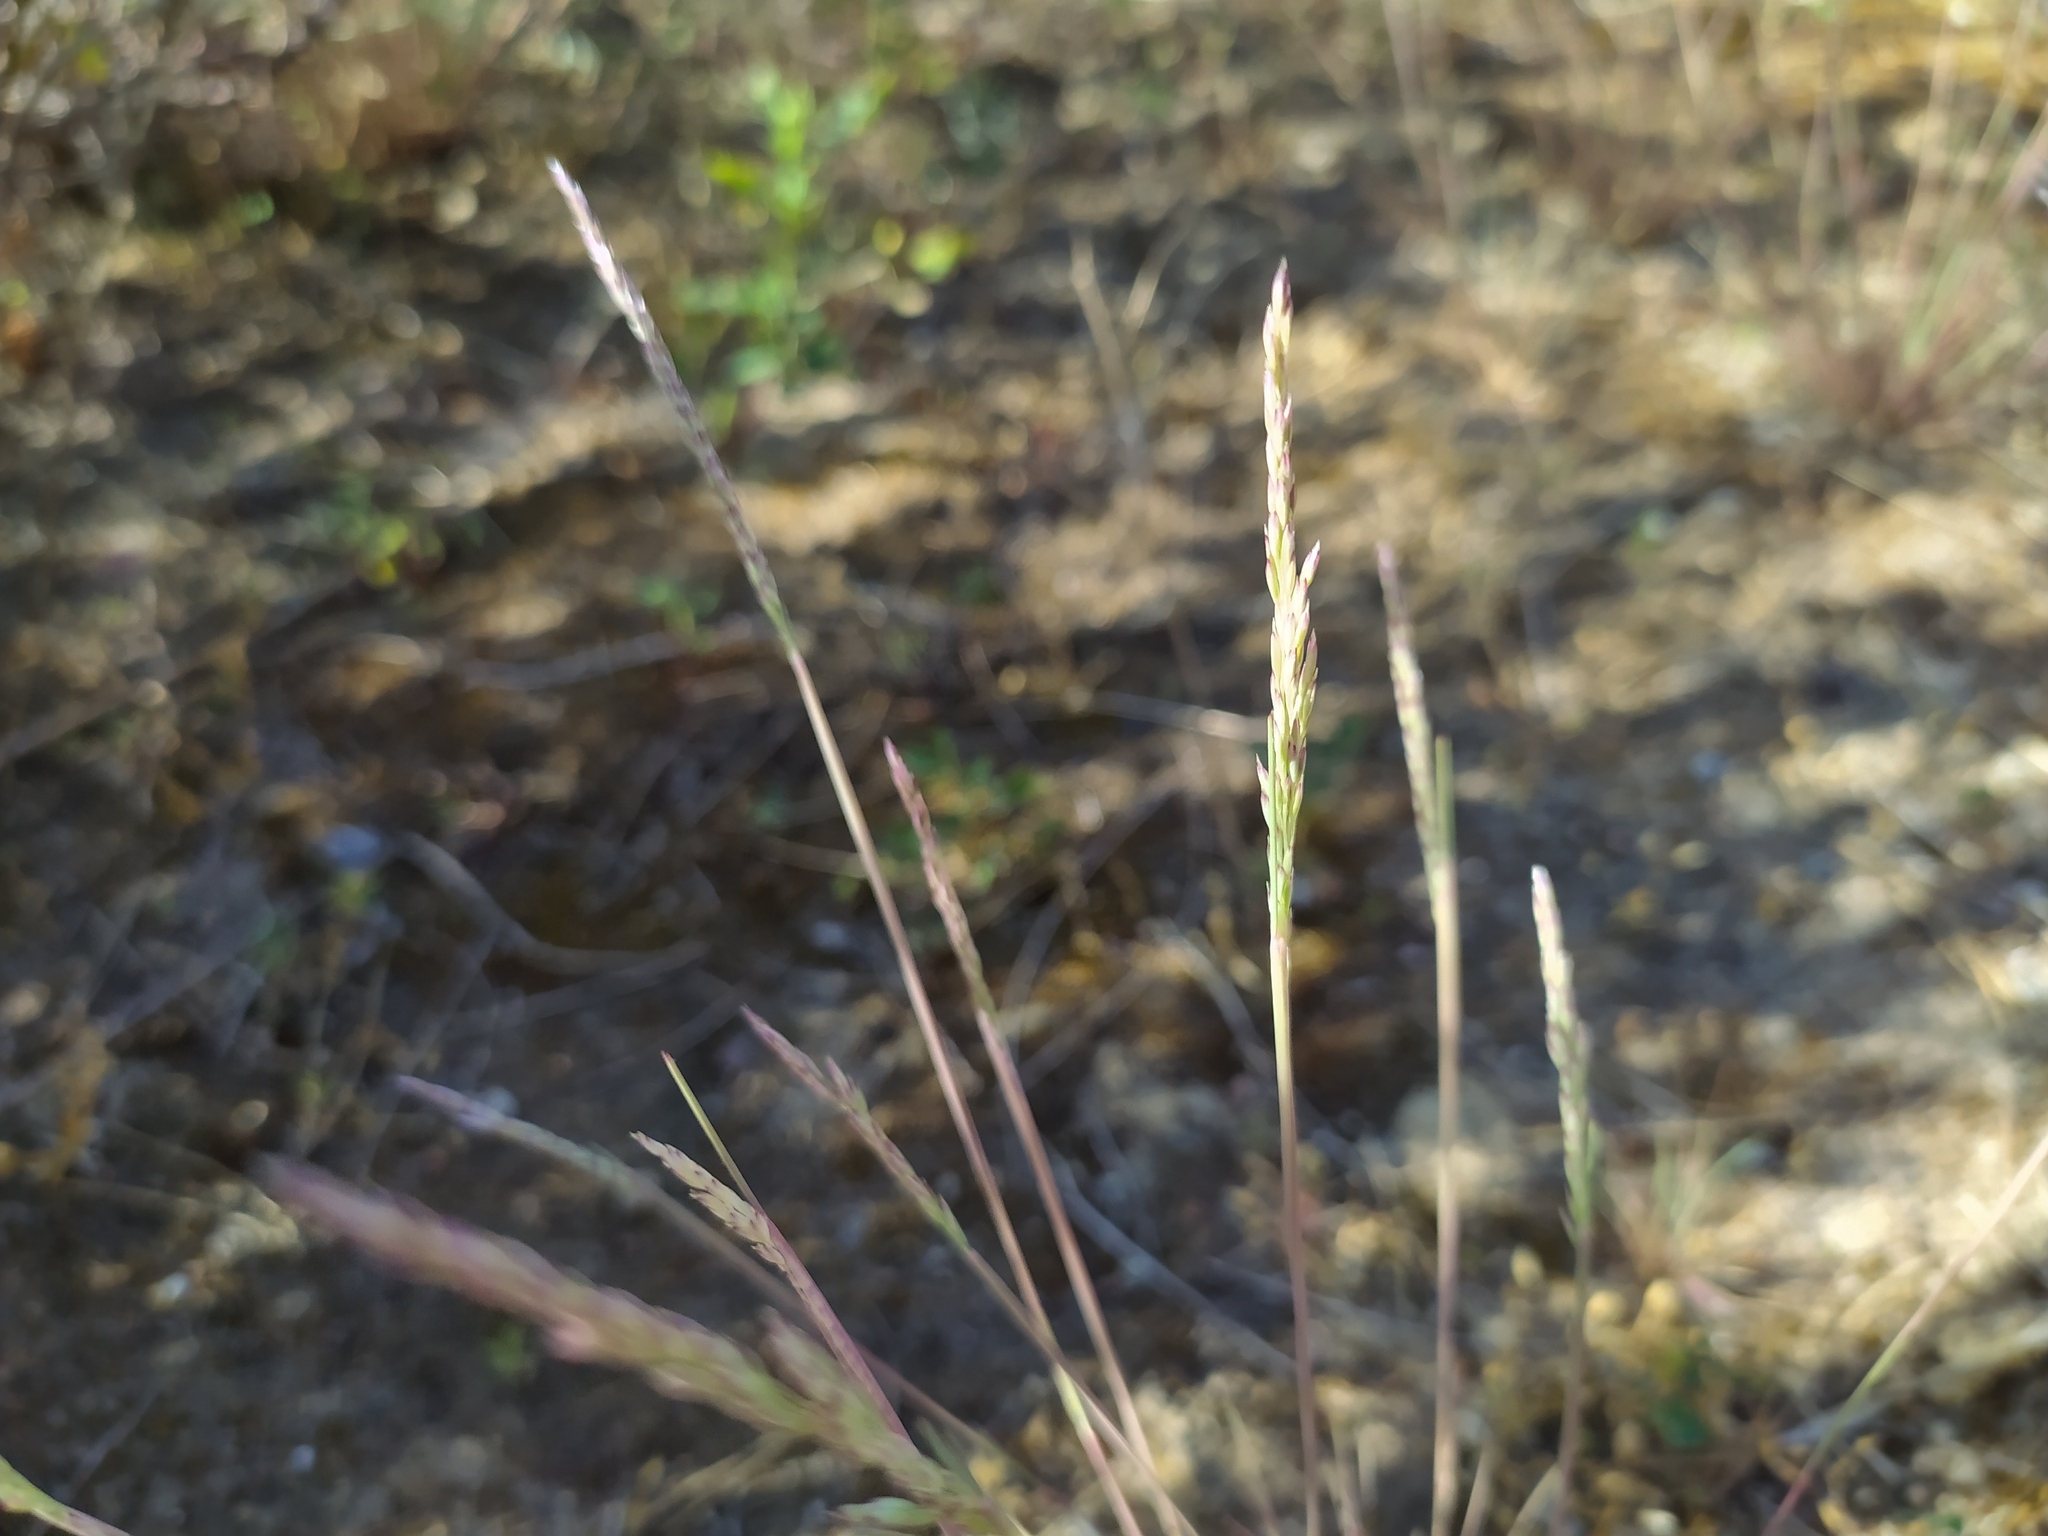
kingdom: Plantae
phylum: Tracheophyta
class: Liliopsida
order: Poales
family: Poaceae
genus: Corynephorus
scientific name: Corynephorus canescens
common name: Grey hair-grass
